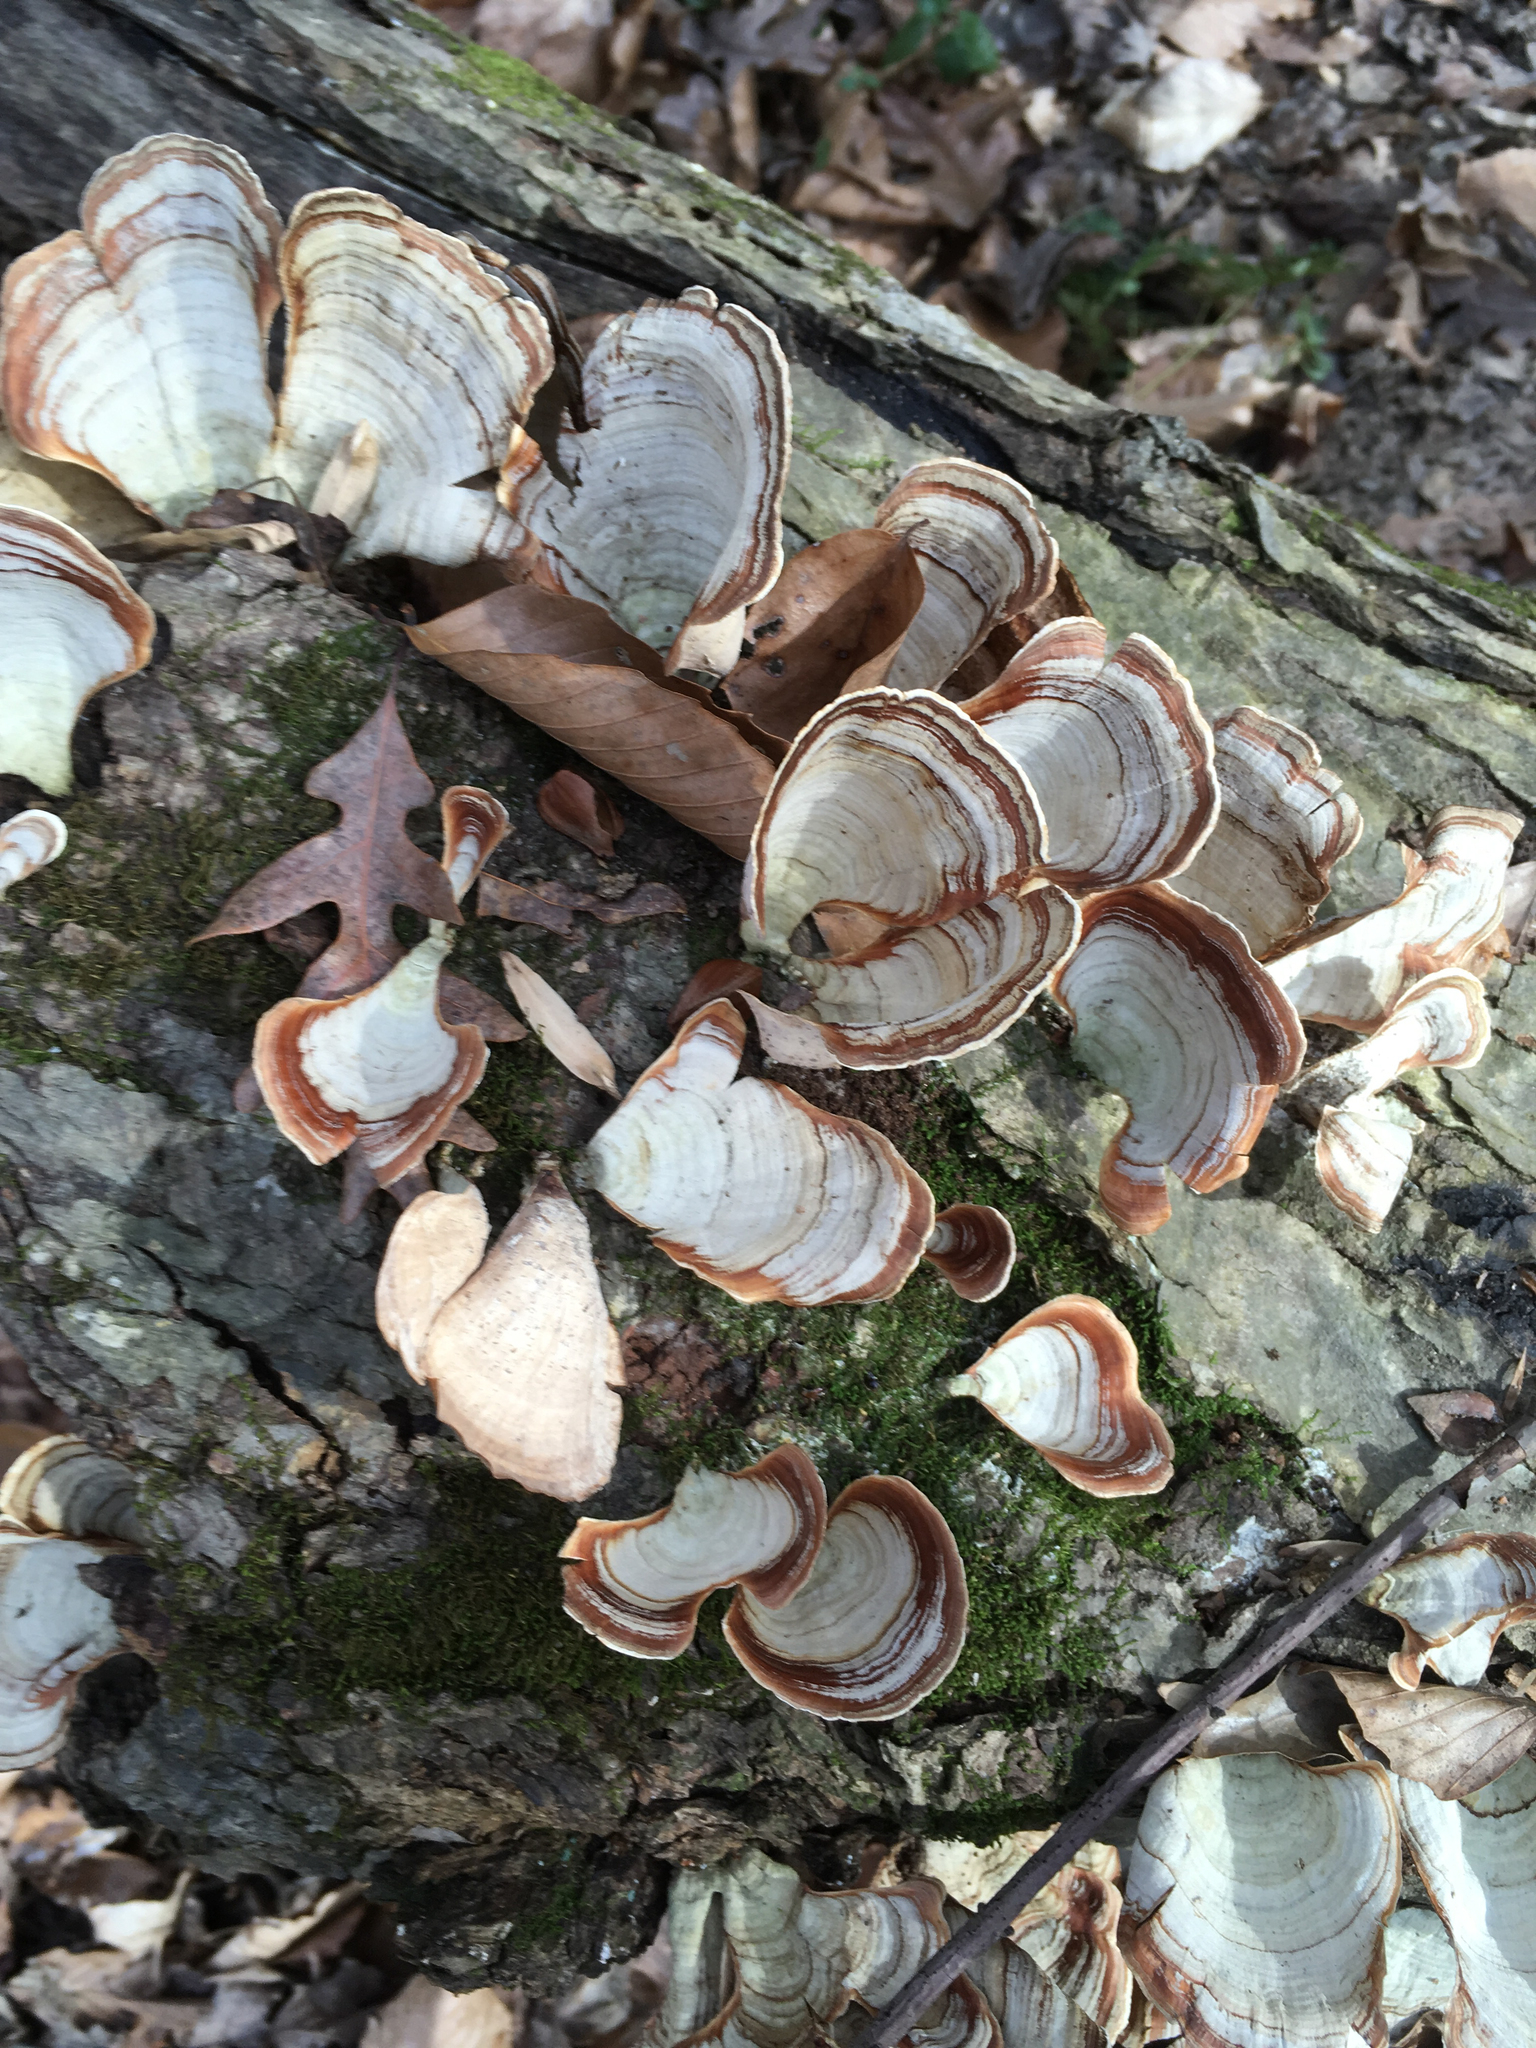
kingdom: Fungi
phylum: Basidiomycota
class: Agaricomycetes
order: Russulales
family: Stereaceae
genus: Stereum
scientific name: Stereum ostrea
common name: False turkeytail
